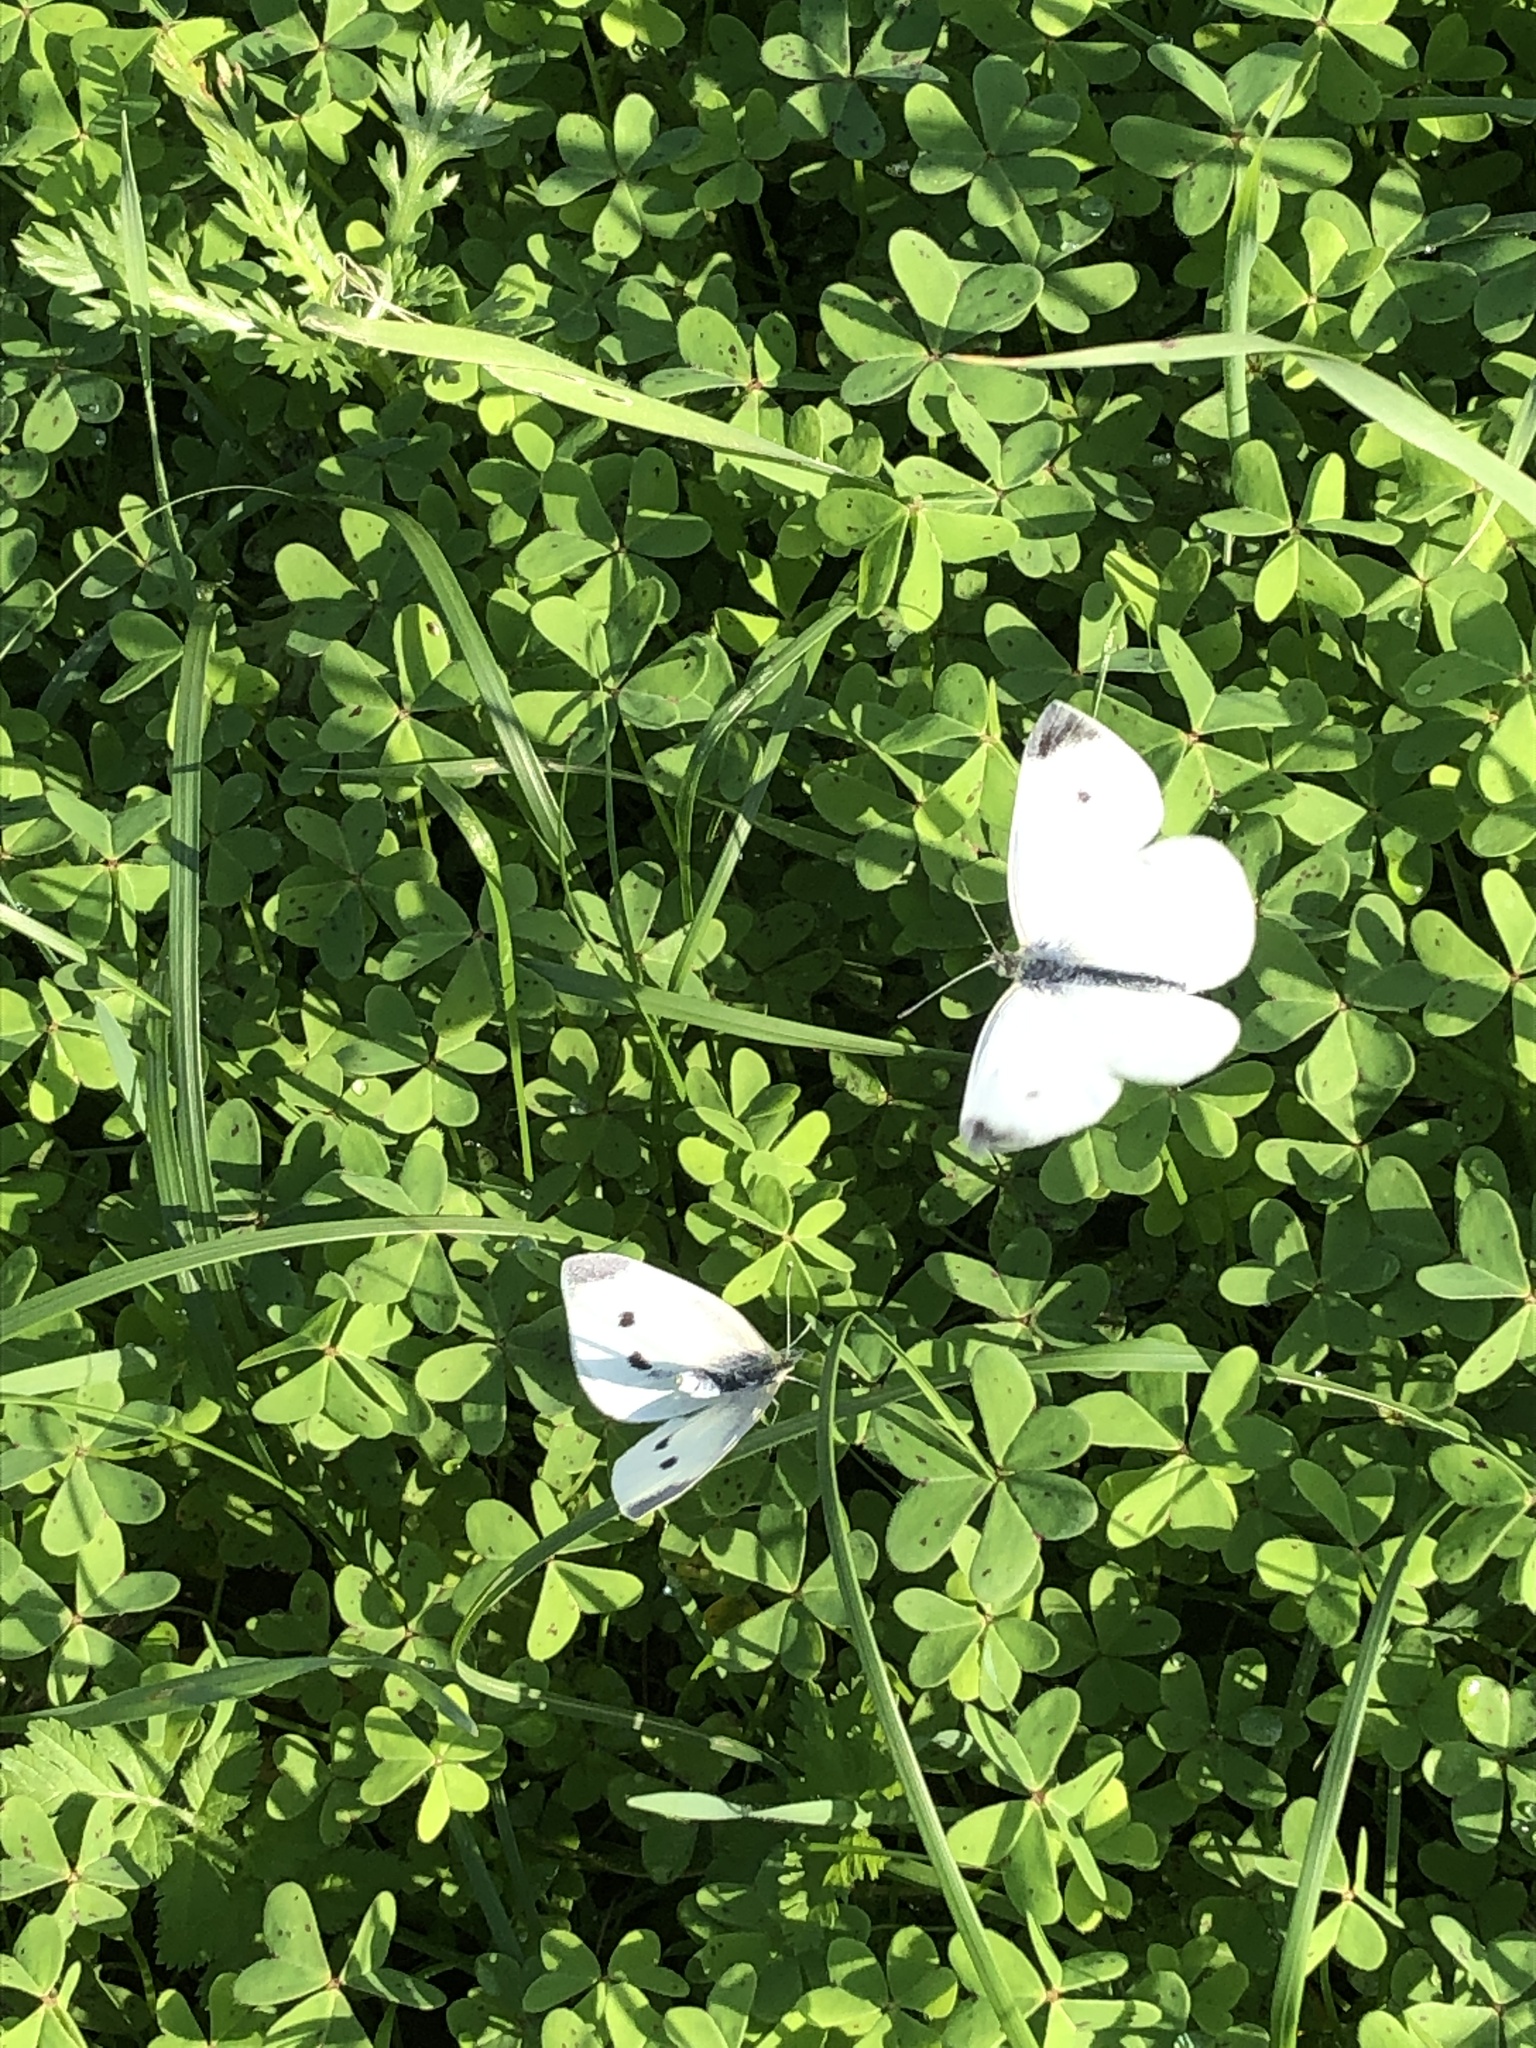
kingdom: Animalia
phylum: Arthropoda
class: Insecta
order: Lepidoptera
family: Pieridae
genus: Pieris
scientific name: Pieris rapae
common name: Small white
